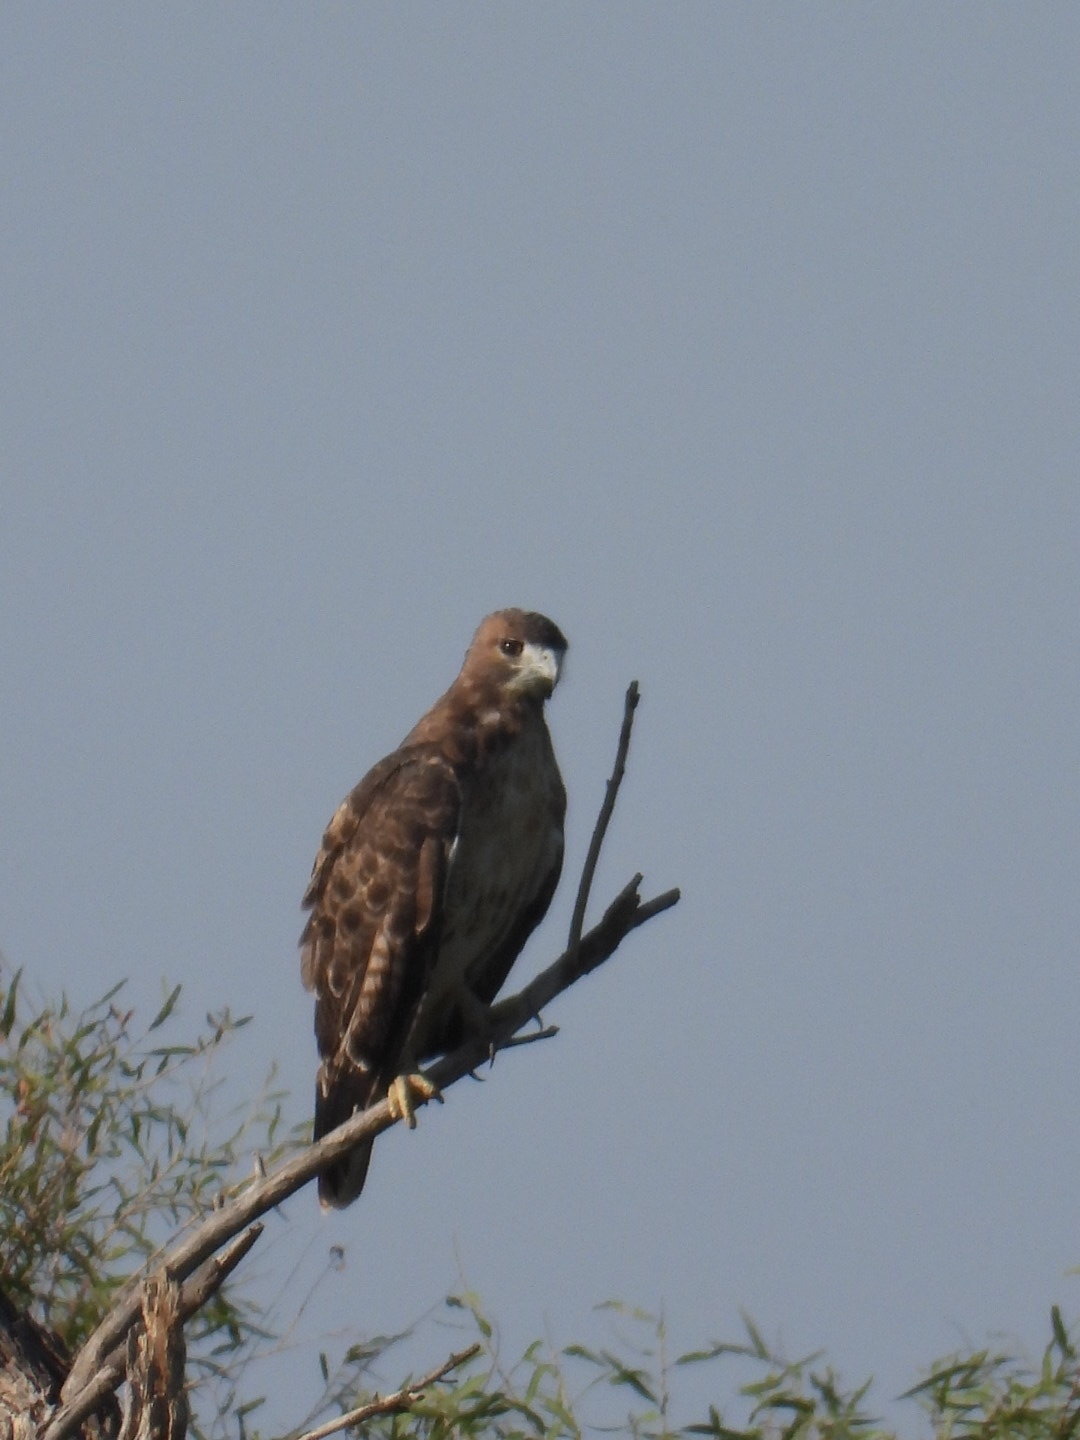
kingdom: Animalia
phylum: Chordata
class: Aves
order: Accipitriformes
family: Accipitridae
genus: Buteo
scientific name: Buteo jamaicensis
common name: Red-tailed hawk
